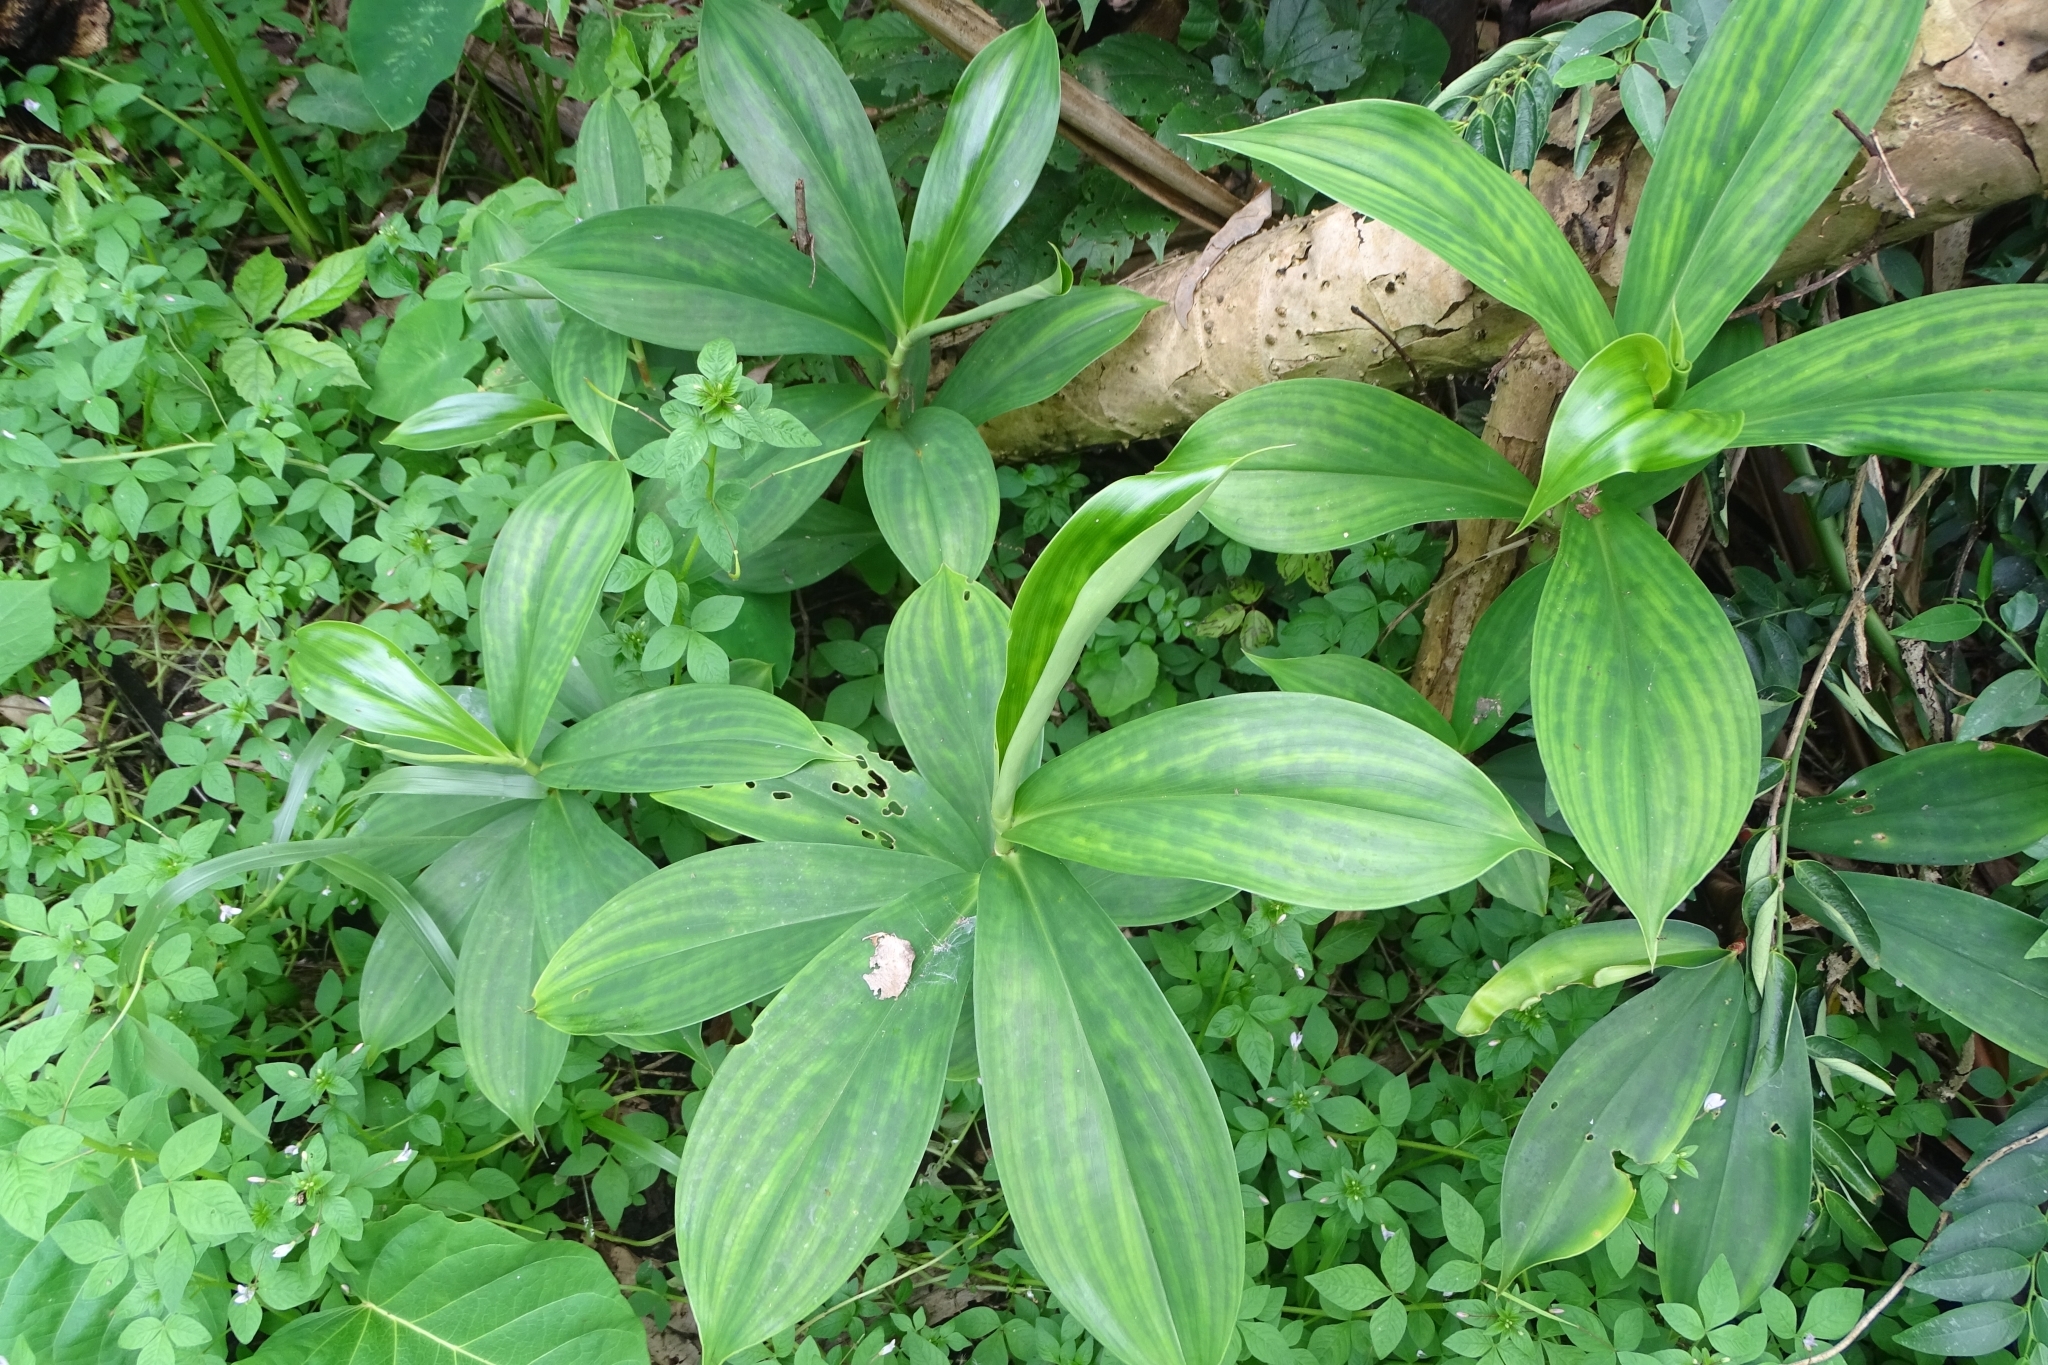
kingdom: Plantae
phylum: Tracheophyta
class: Liliopsida
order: Zingiberales
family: Costaceae
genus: Hellenia
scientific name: Hellenia speciosa
